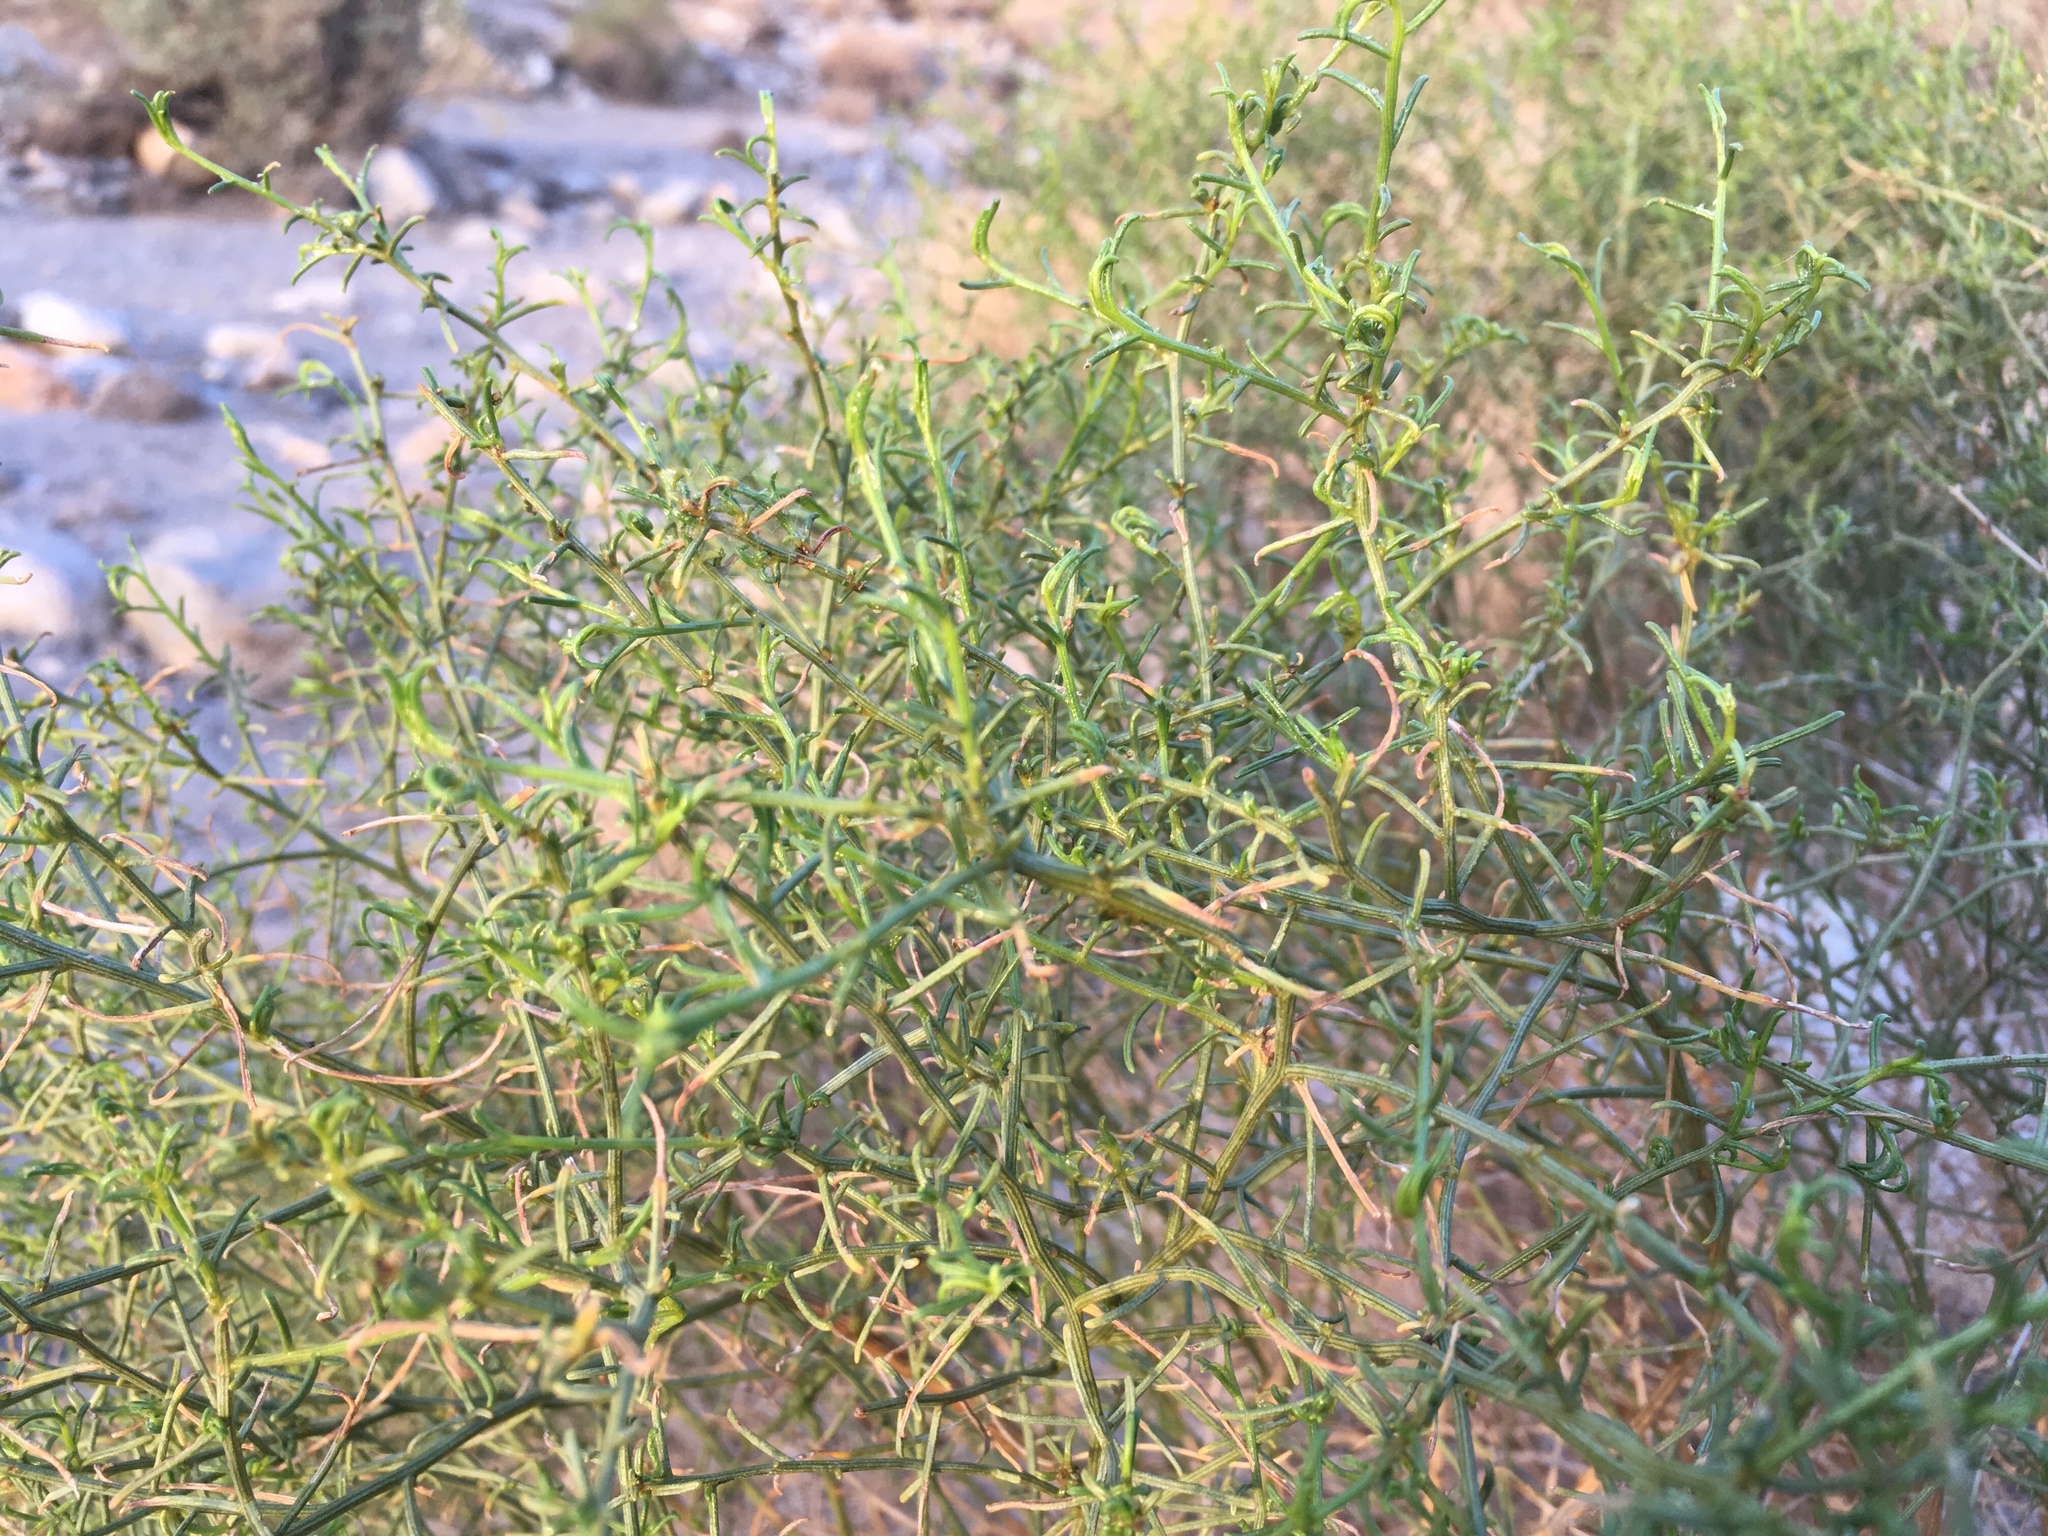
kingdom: Plantae
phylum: Tracheophyta
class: Magnoliopsida
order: Asterales
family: Asteraceae
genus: Ambrosia
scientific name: Ambrosia salsola
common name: Burrobrush
